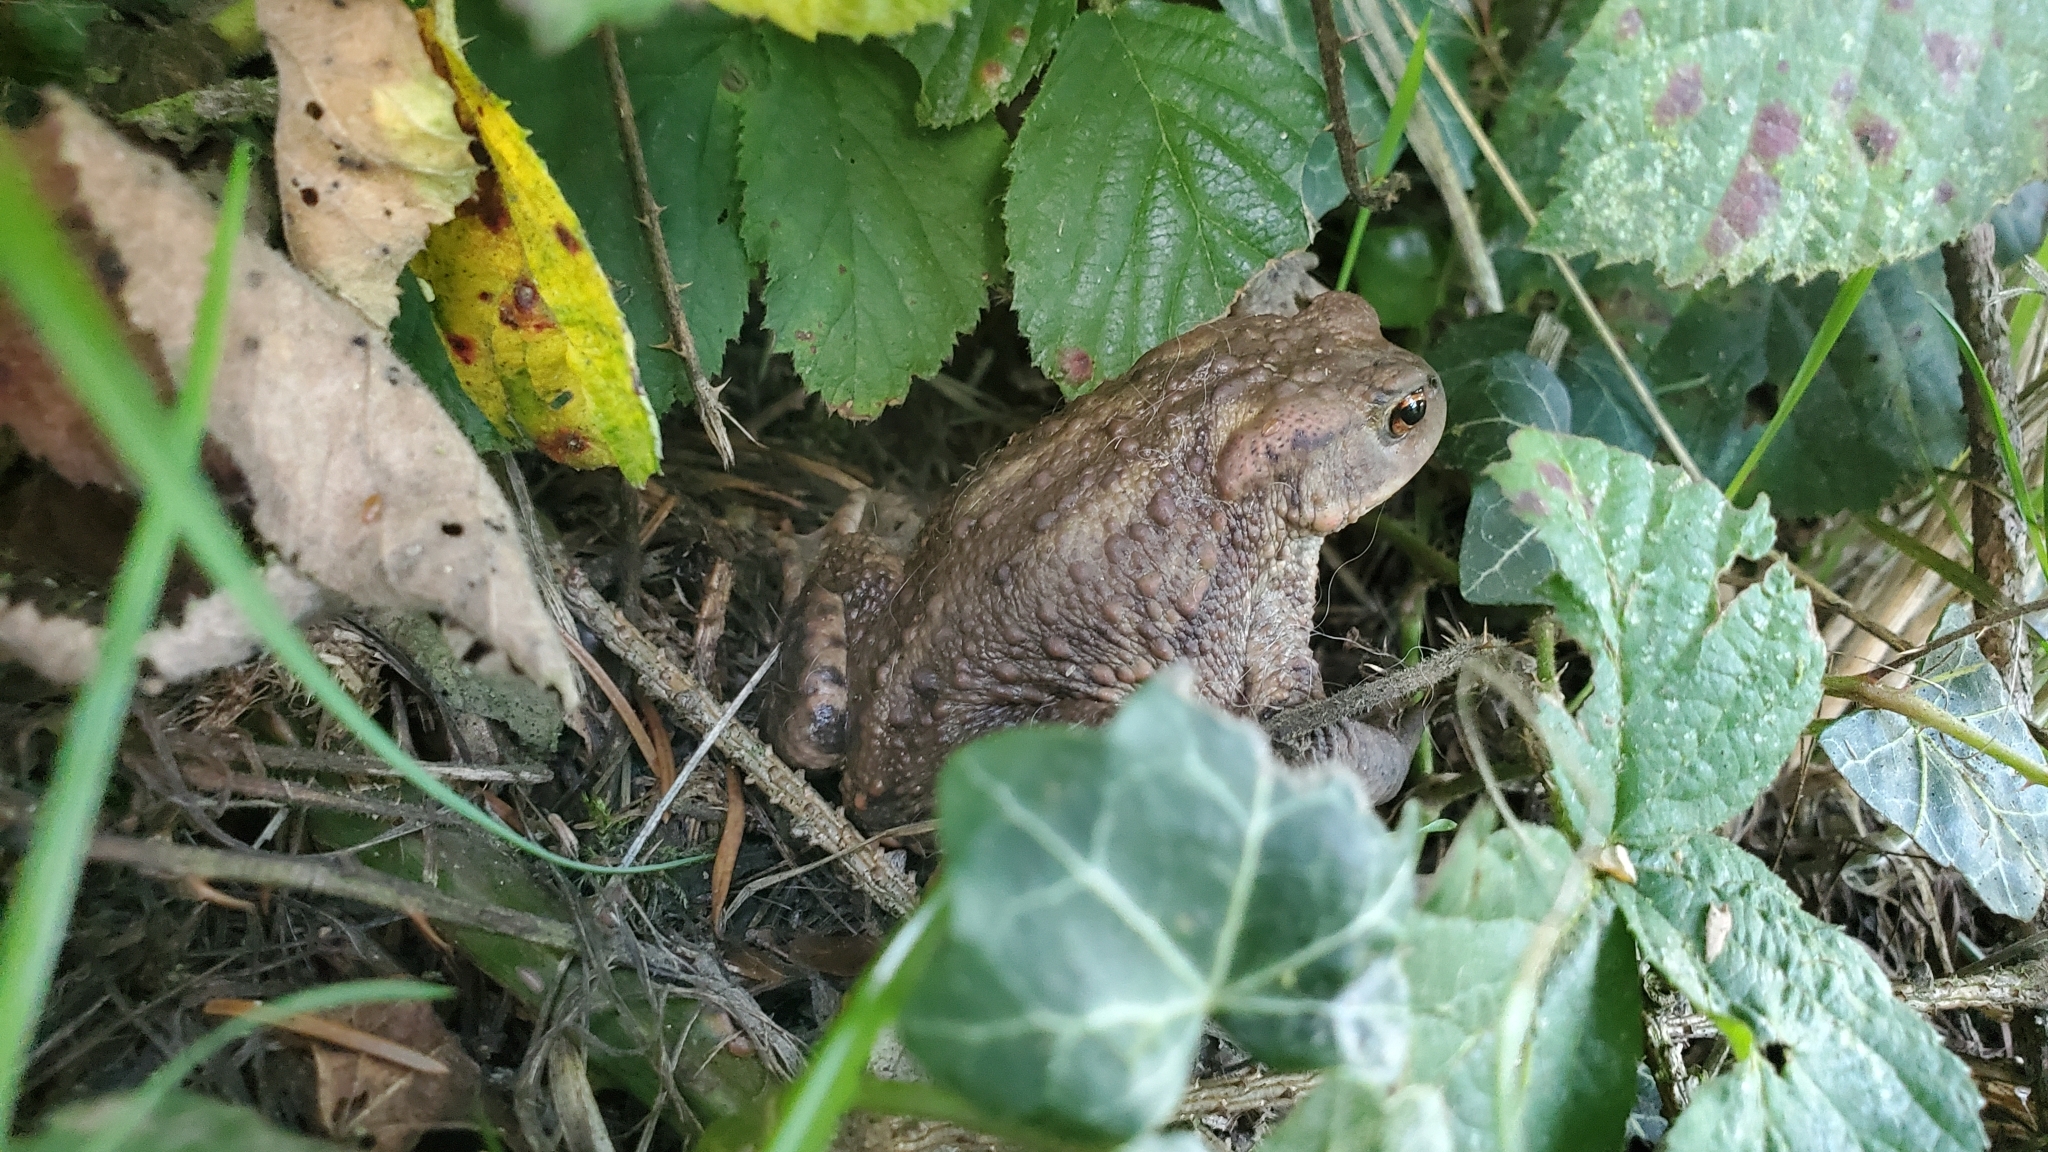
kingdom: Animalia
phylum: Chordata
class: Amphibia
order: Anura
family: Bufonidae
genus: Bufo
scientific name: Bufo bufo
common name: Common toad
